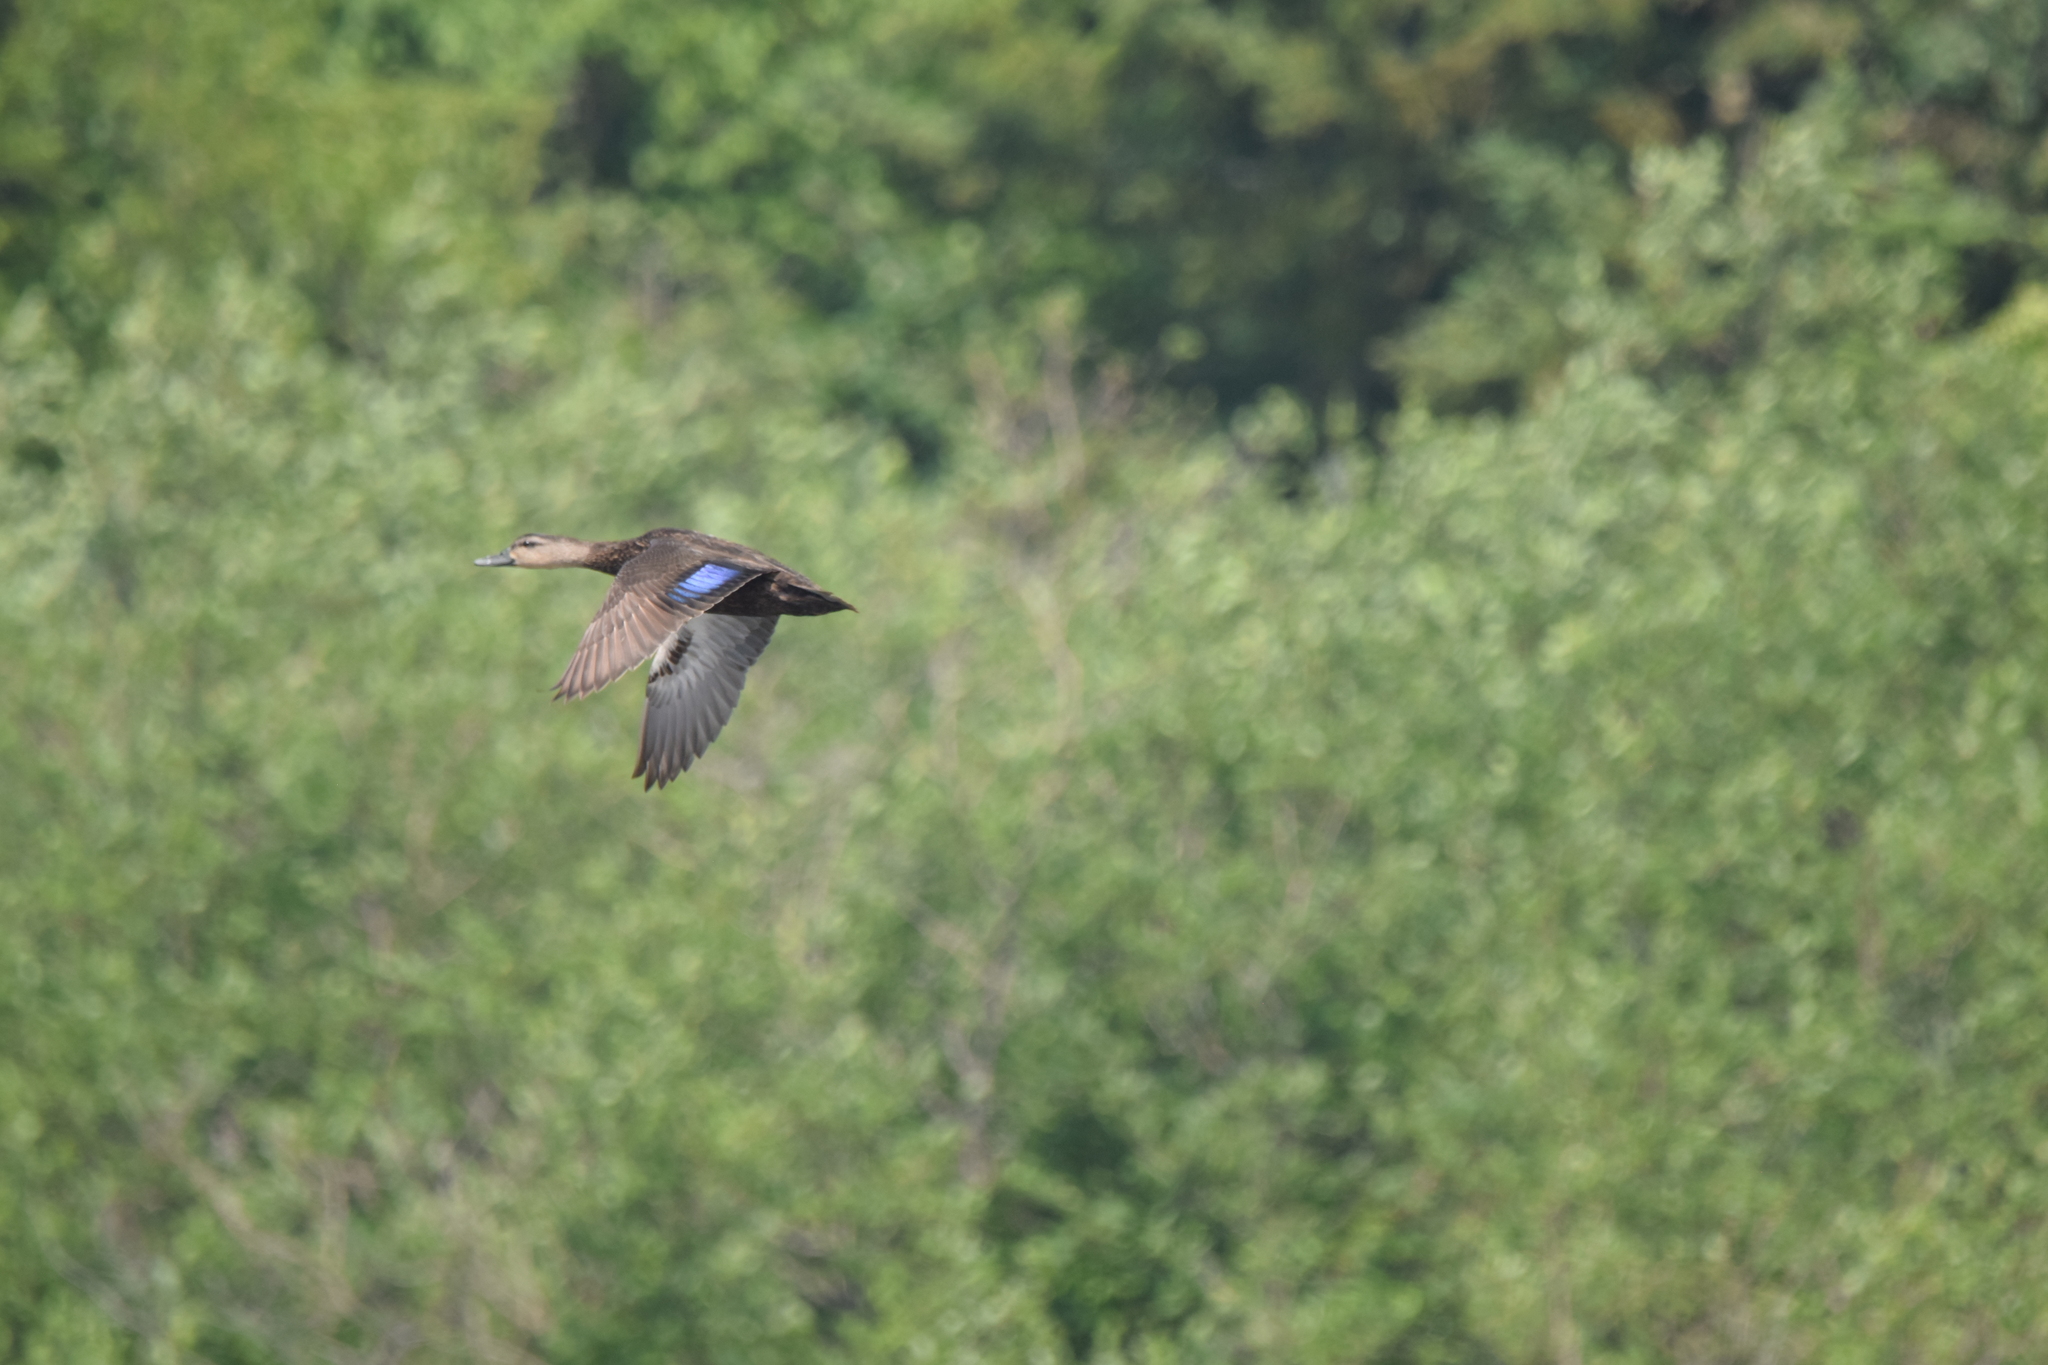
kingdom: Animalia
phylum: Chordata
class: Aves
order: Anseriformes
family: Anatidae
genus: Anas
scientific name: Anas rubripes
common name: American black duck
